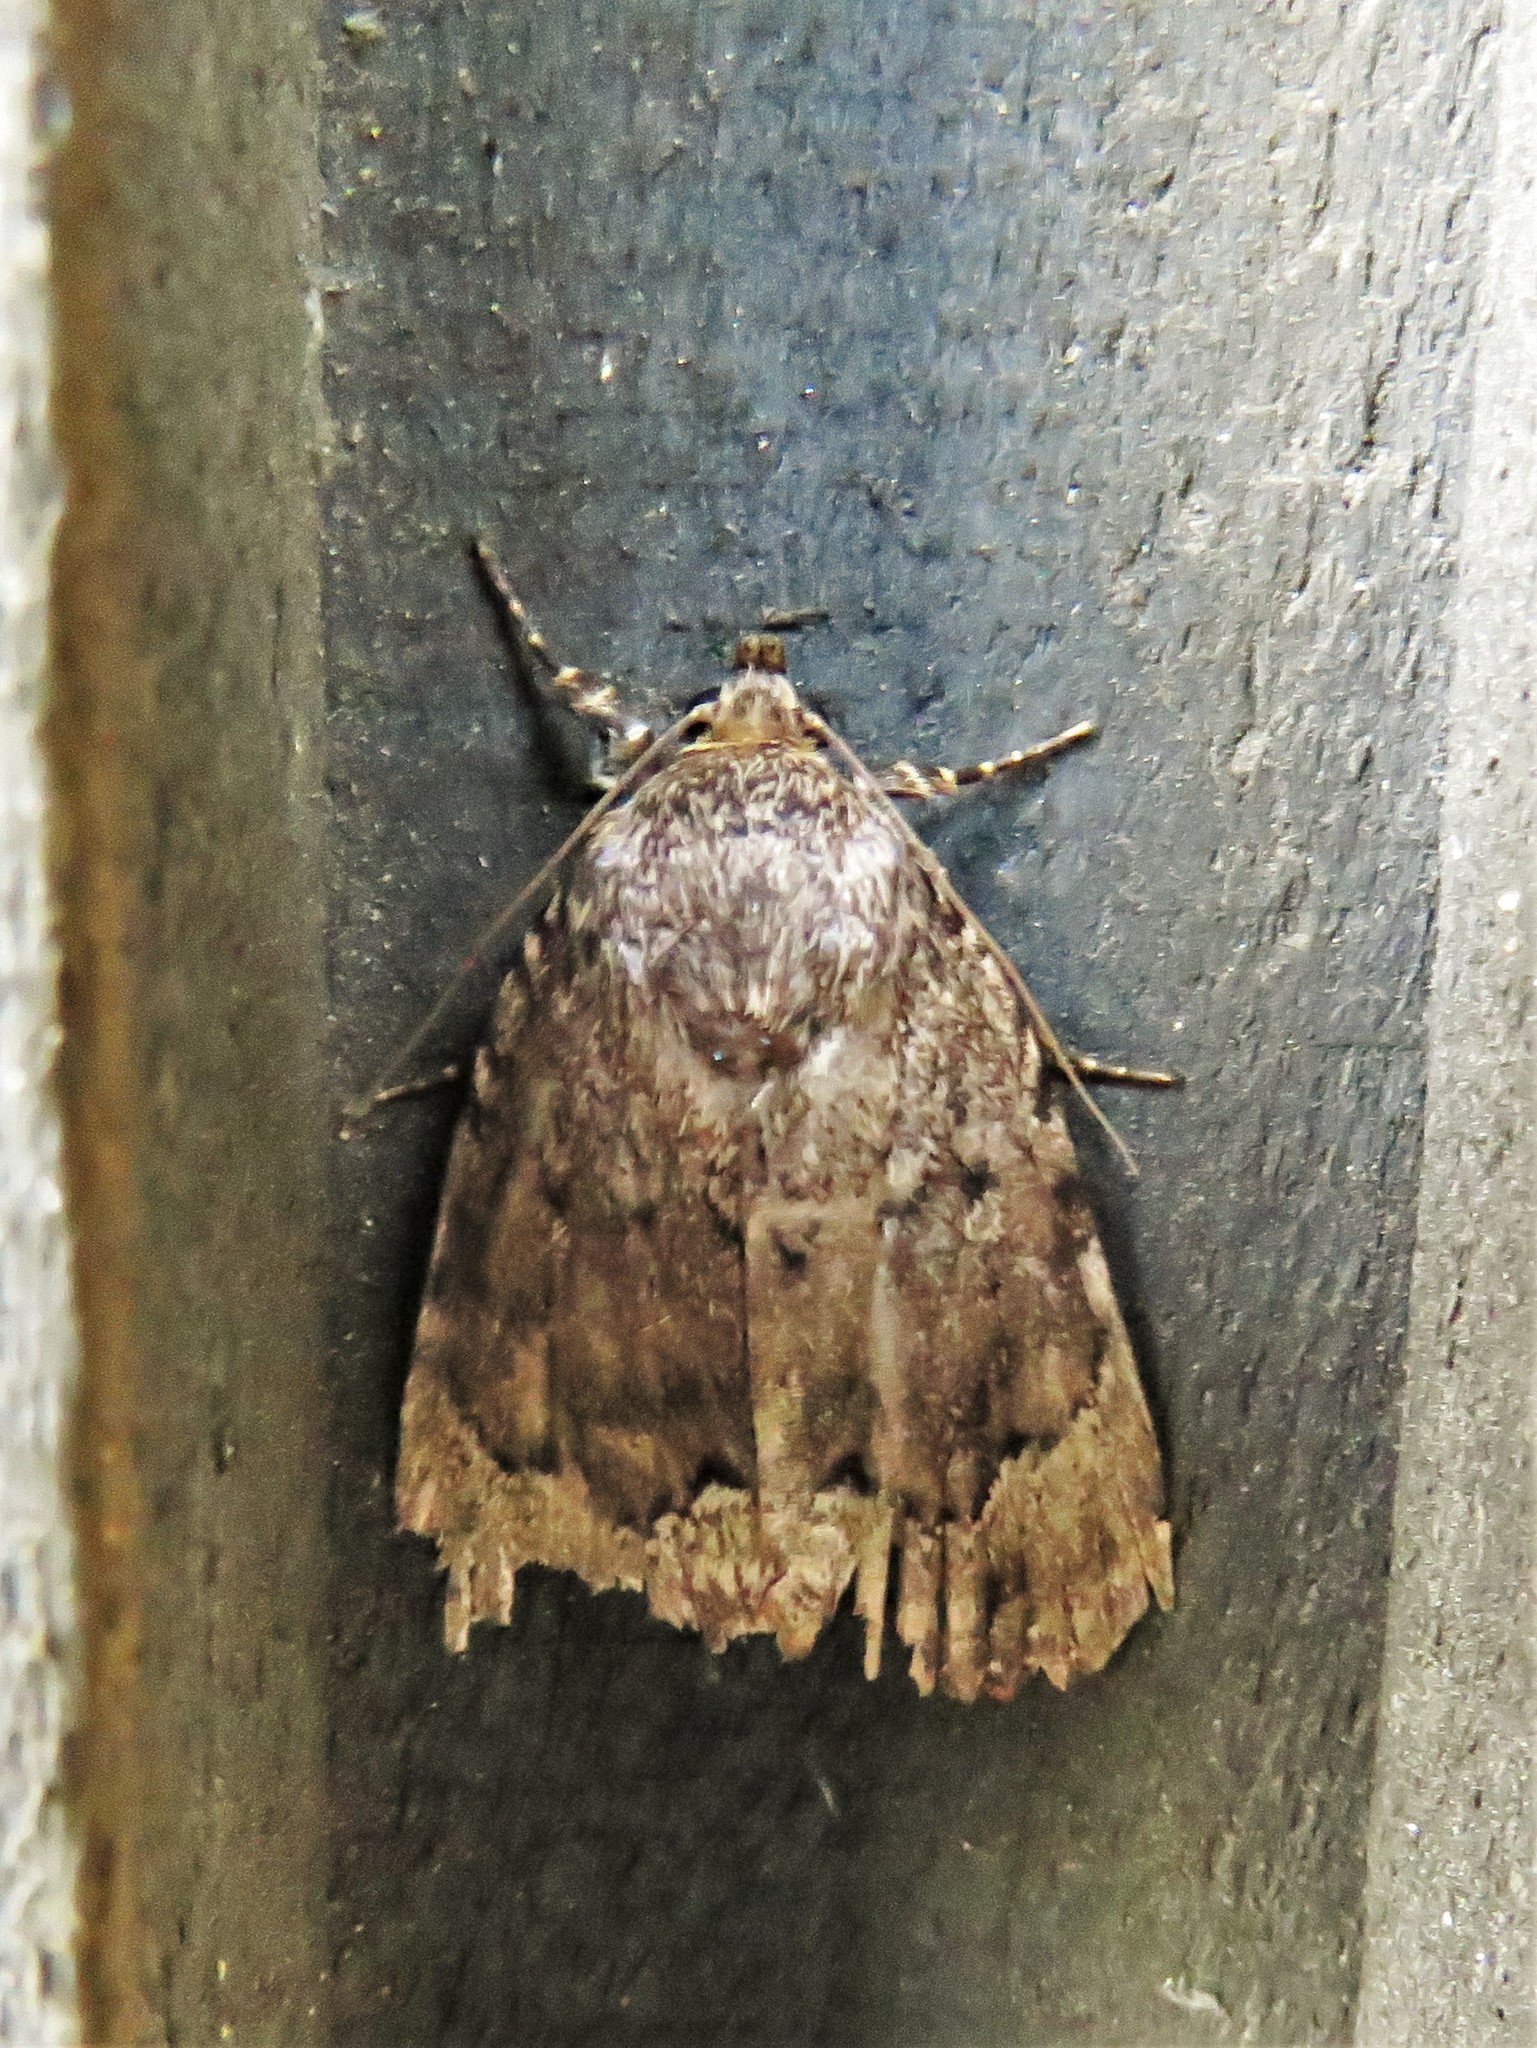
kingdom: Animalia
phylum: Arthropoda
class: Insecta
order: Lepidoptera
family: Noctuidae
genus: Amphipyra
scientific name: Amphipyra pyramidoides
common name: American copper underwing
